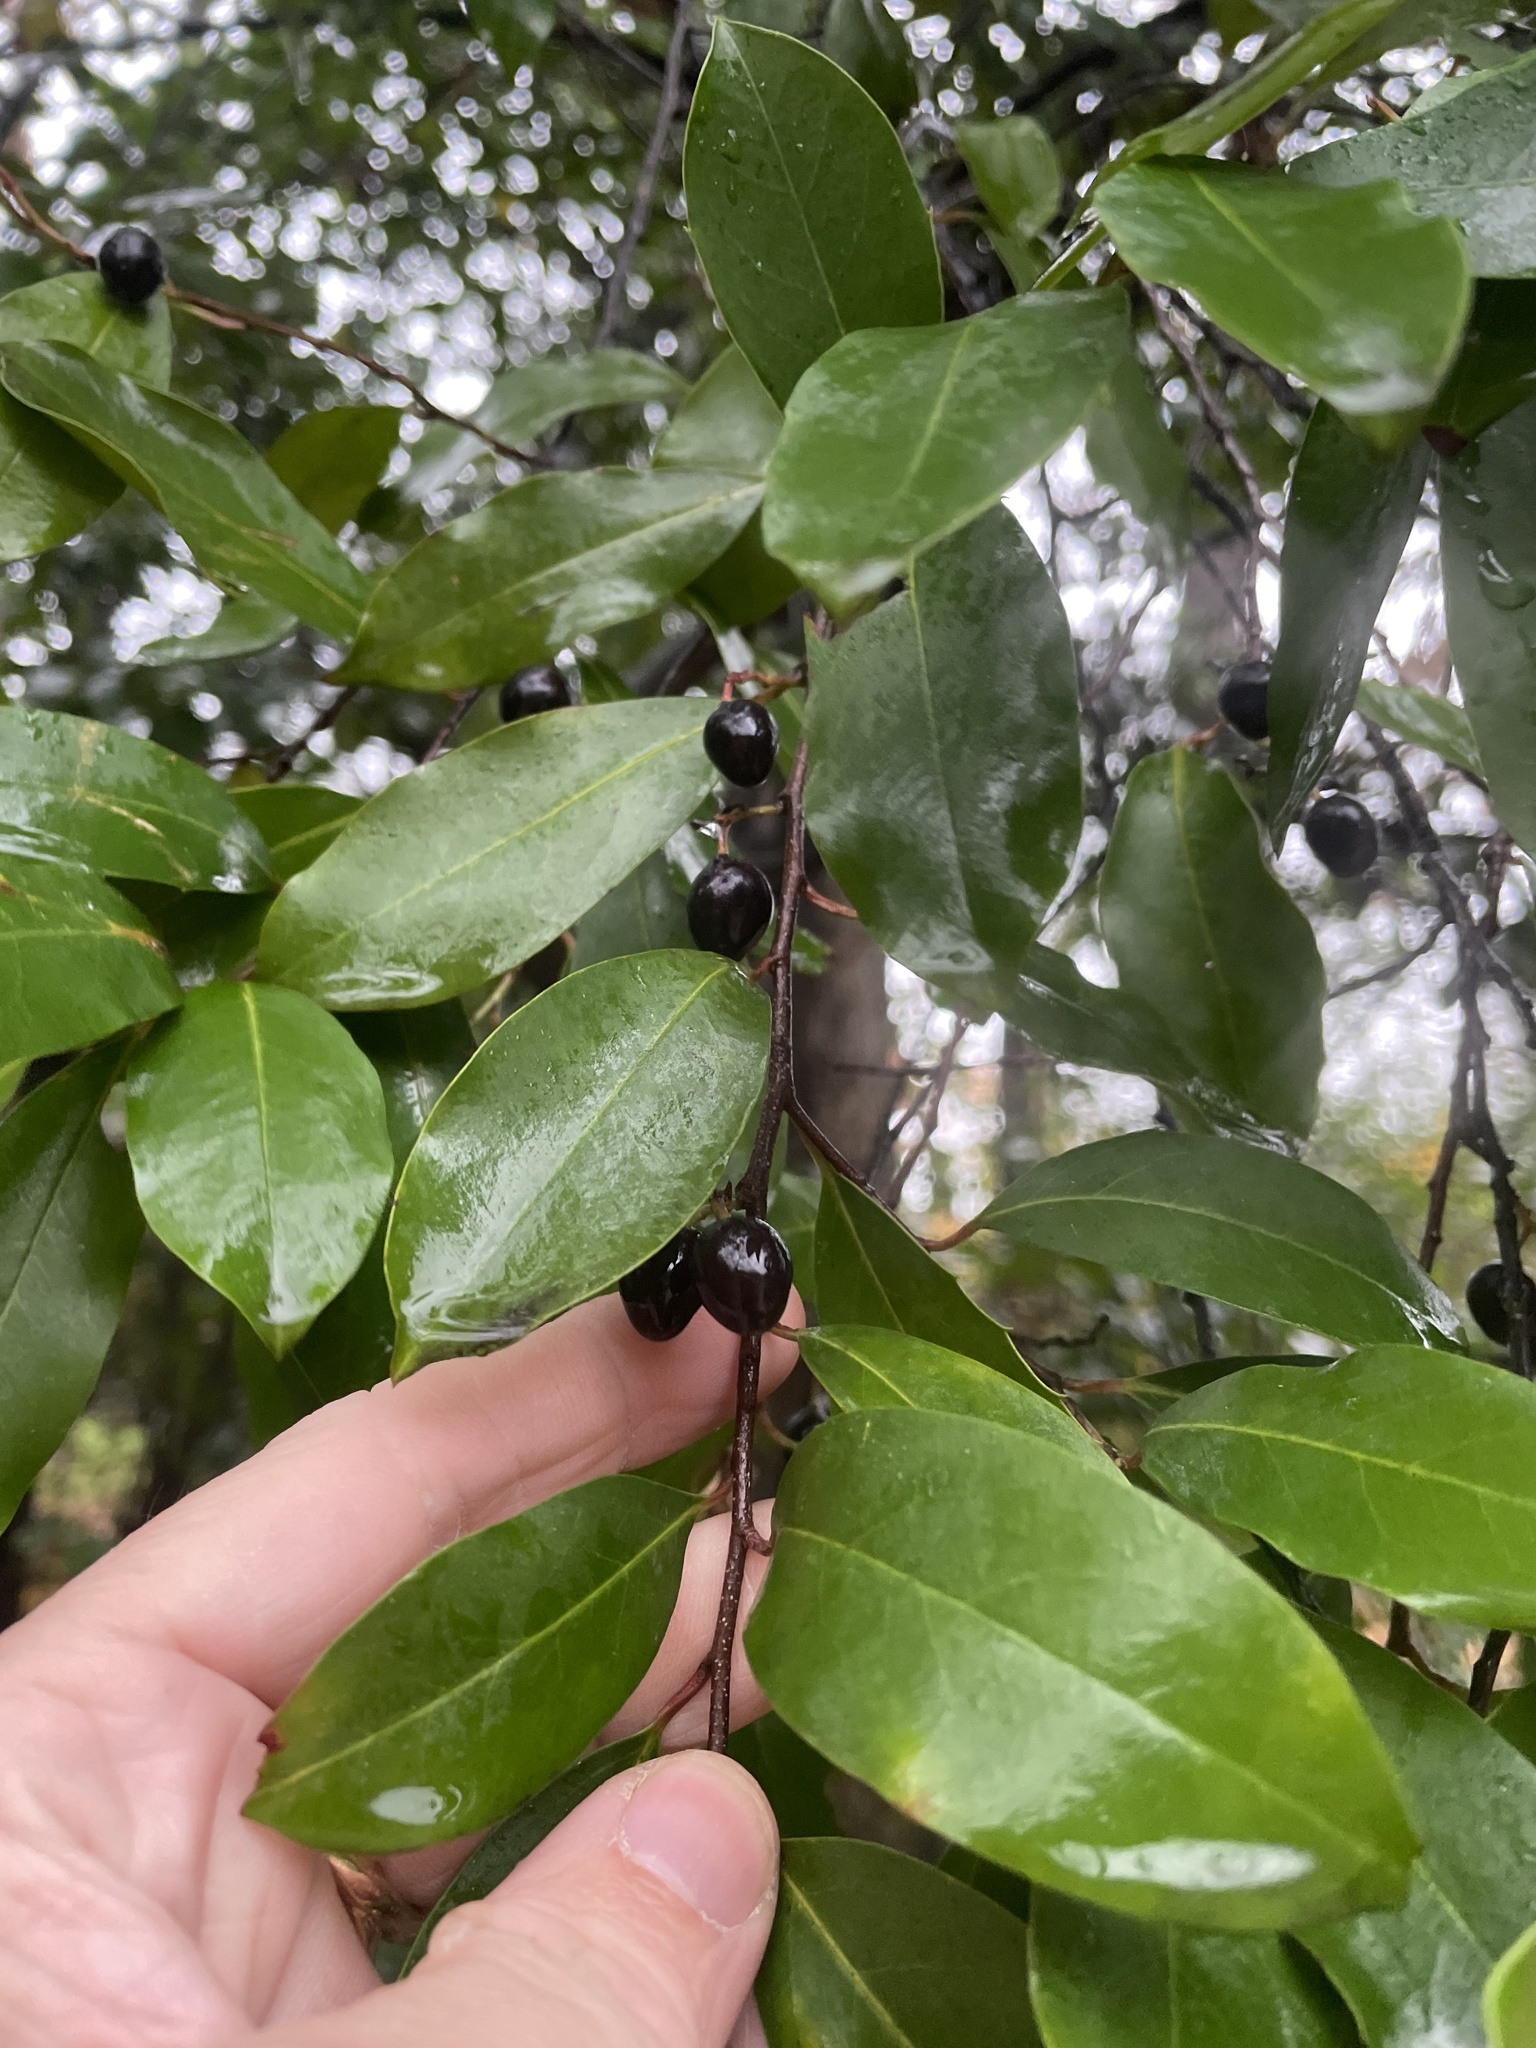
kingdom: Plantae
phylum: Tracheophyta
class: Magnoliopsida
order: Rosales
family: Rosaceae
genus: Prunus
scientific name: Prunus caroliniana
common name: Carolina laurel cherry
